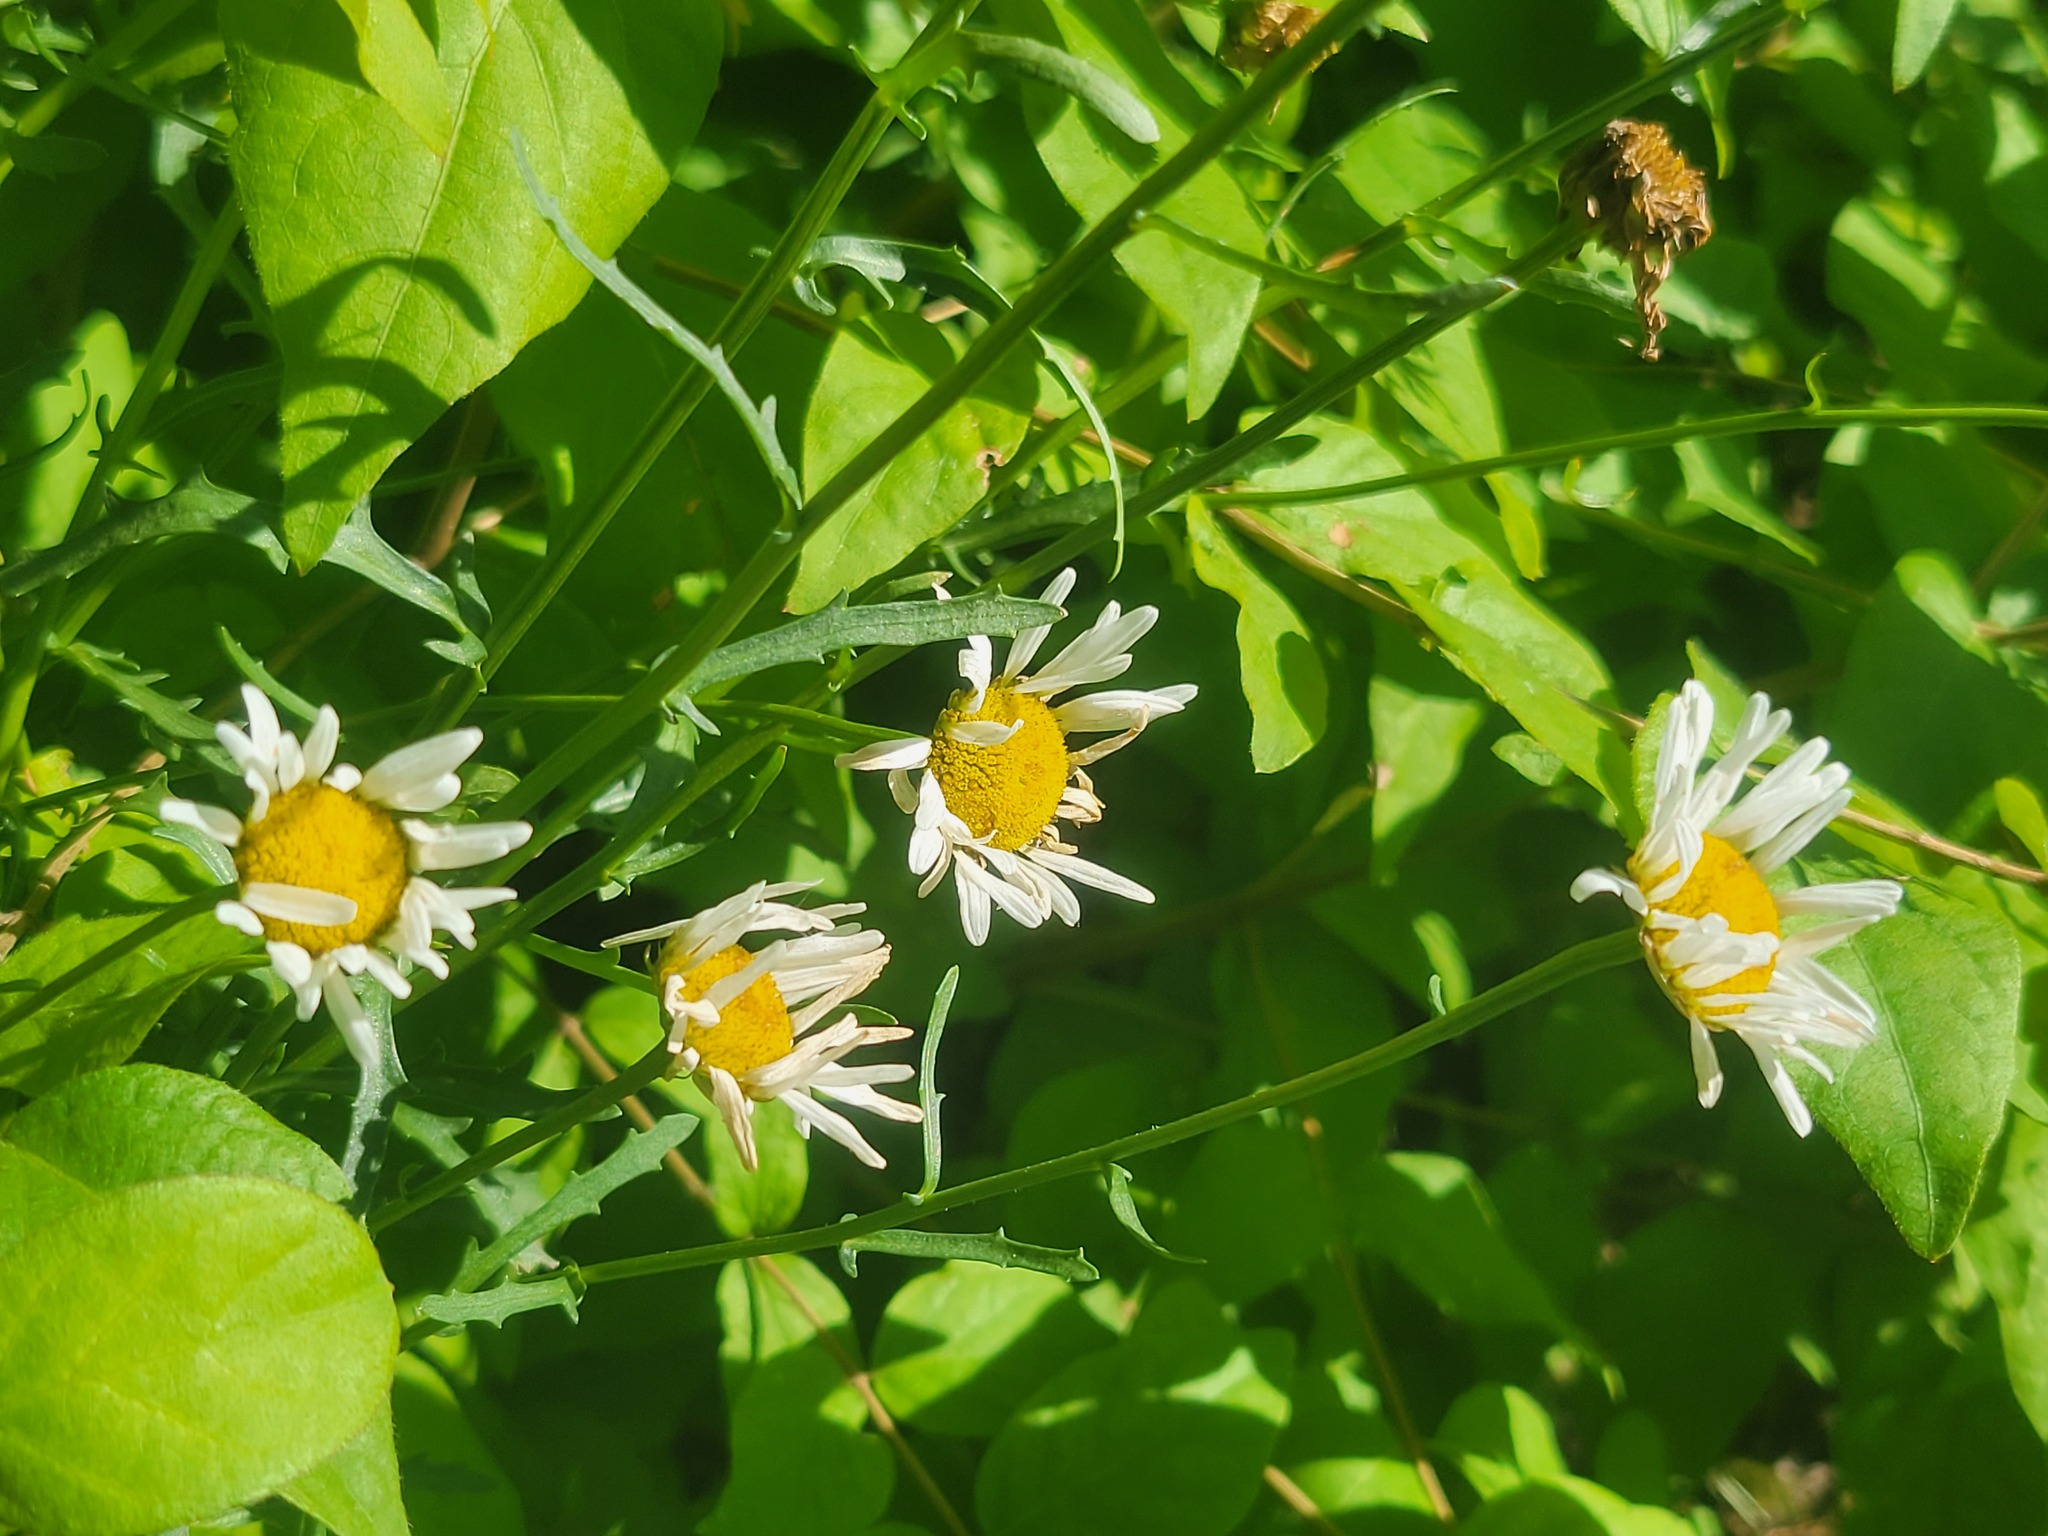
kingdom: Plantae
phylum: Tracheophyta
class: Magnoliopsida
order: Asterales
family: Asteraceae
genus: Leucanthemum
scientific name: Leucanthemum vulgare
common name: Oxeye daisy
